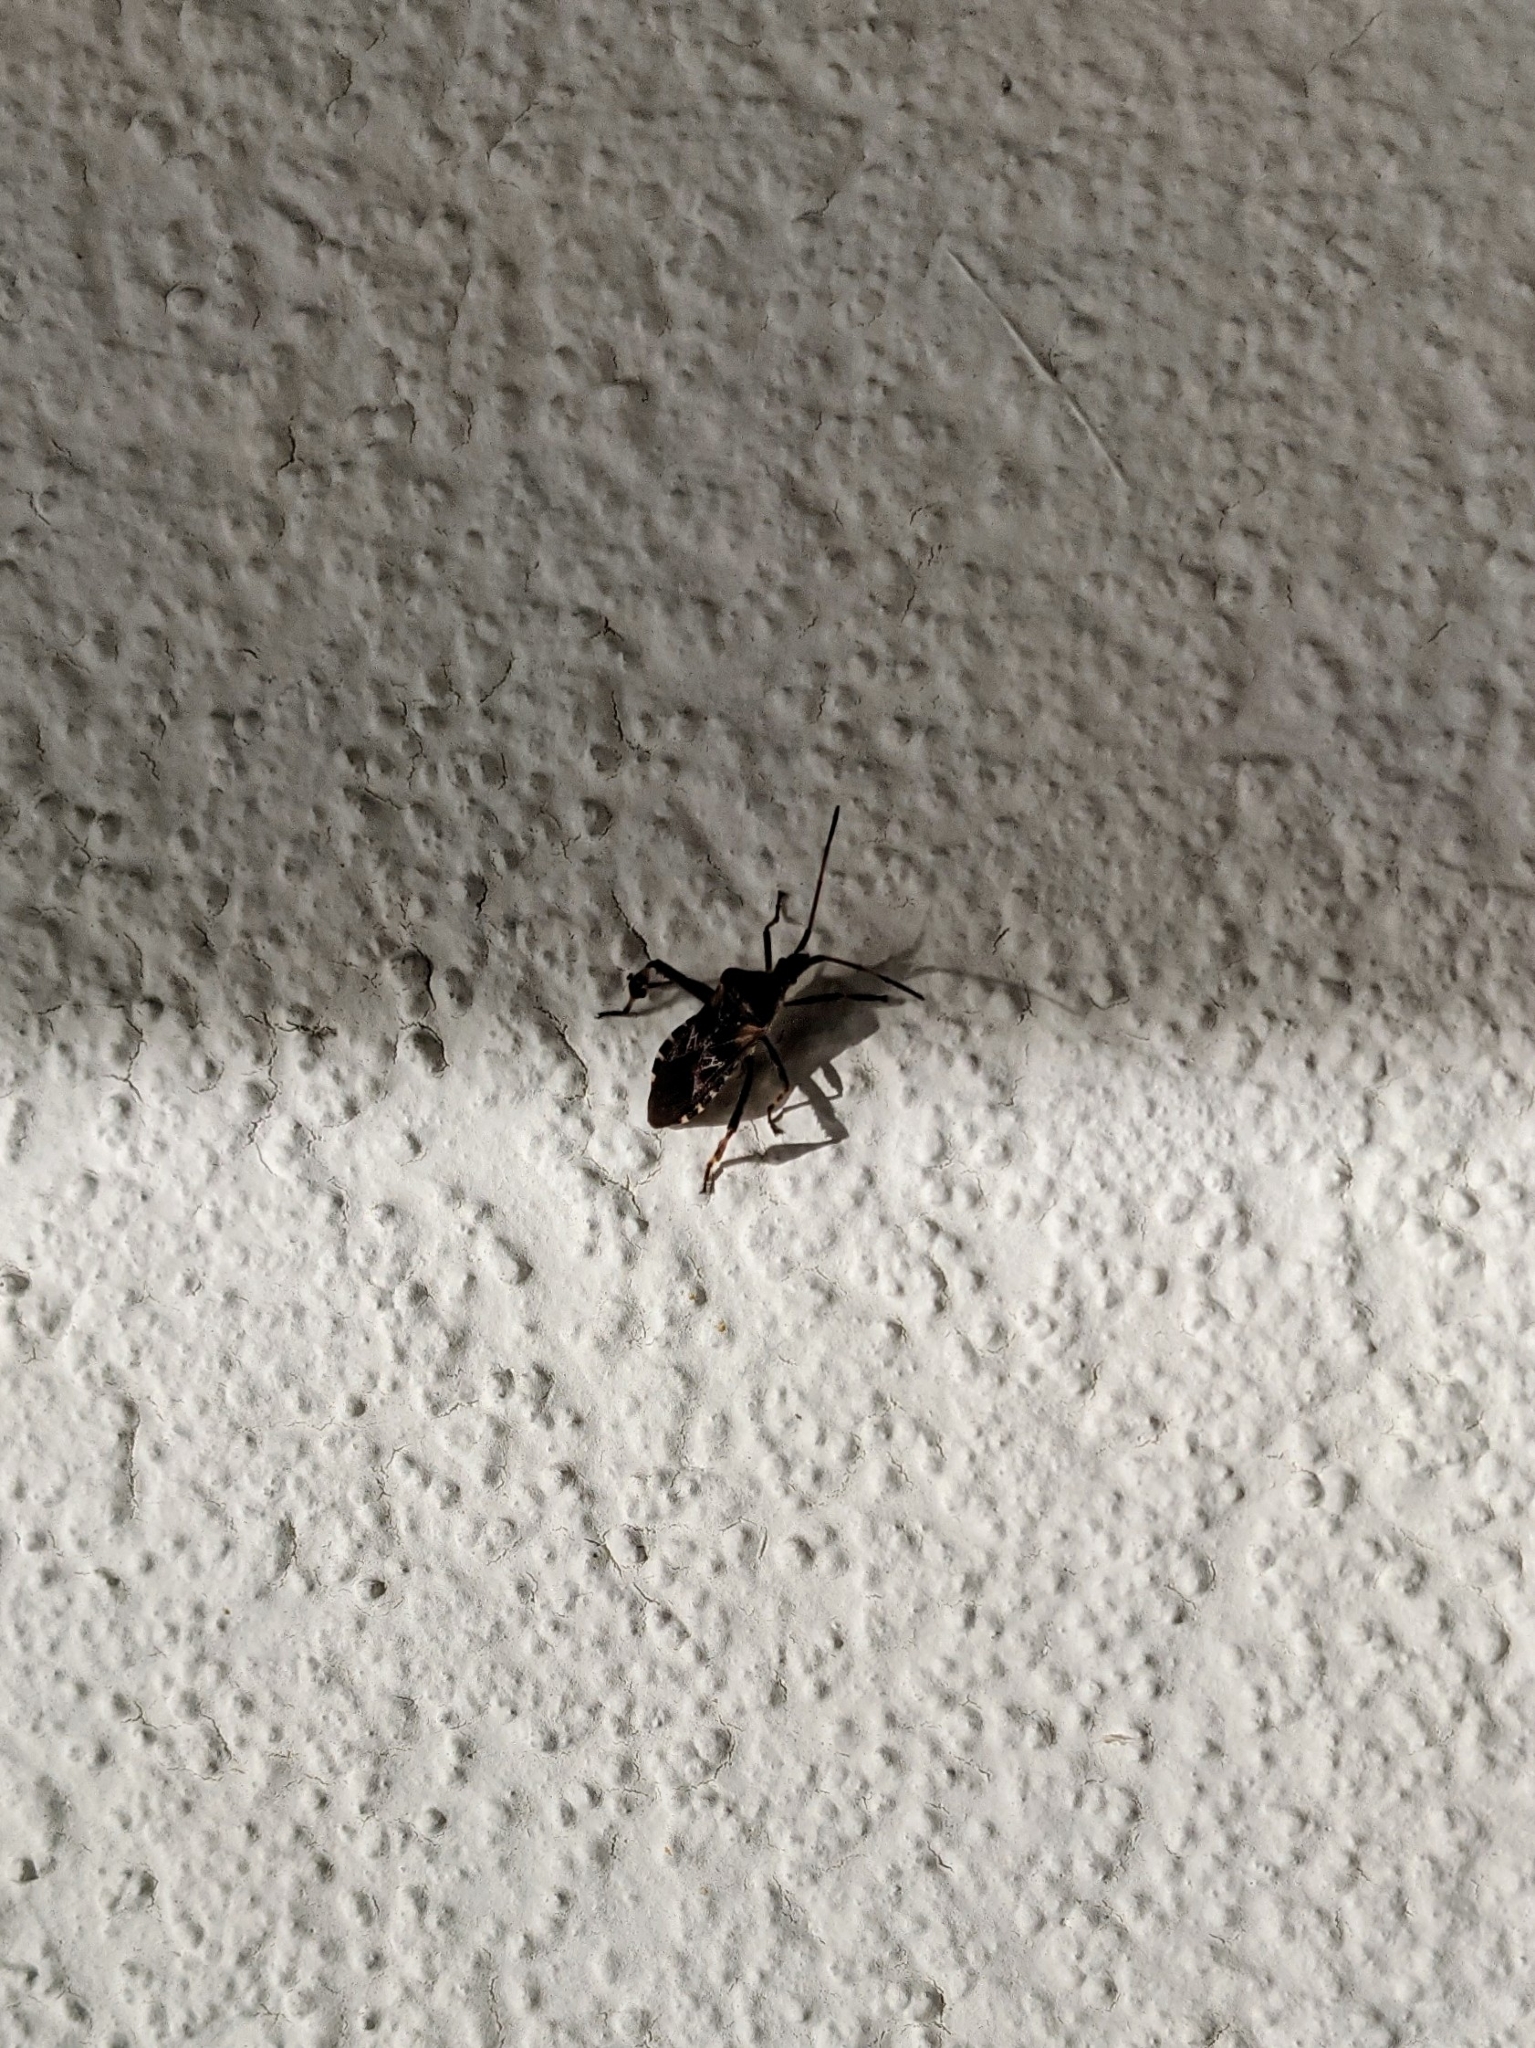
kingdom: Animalia
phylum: Arthropoda
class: Insecta
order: Hemiptera
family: Coreidae
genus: Leptoglossus
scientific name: Leptoglossus occidentalis
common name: Western conifer-seed bug
